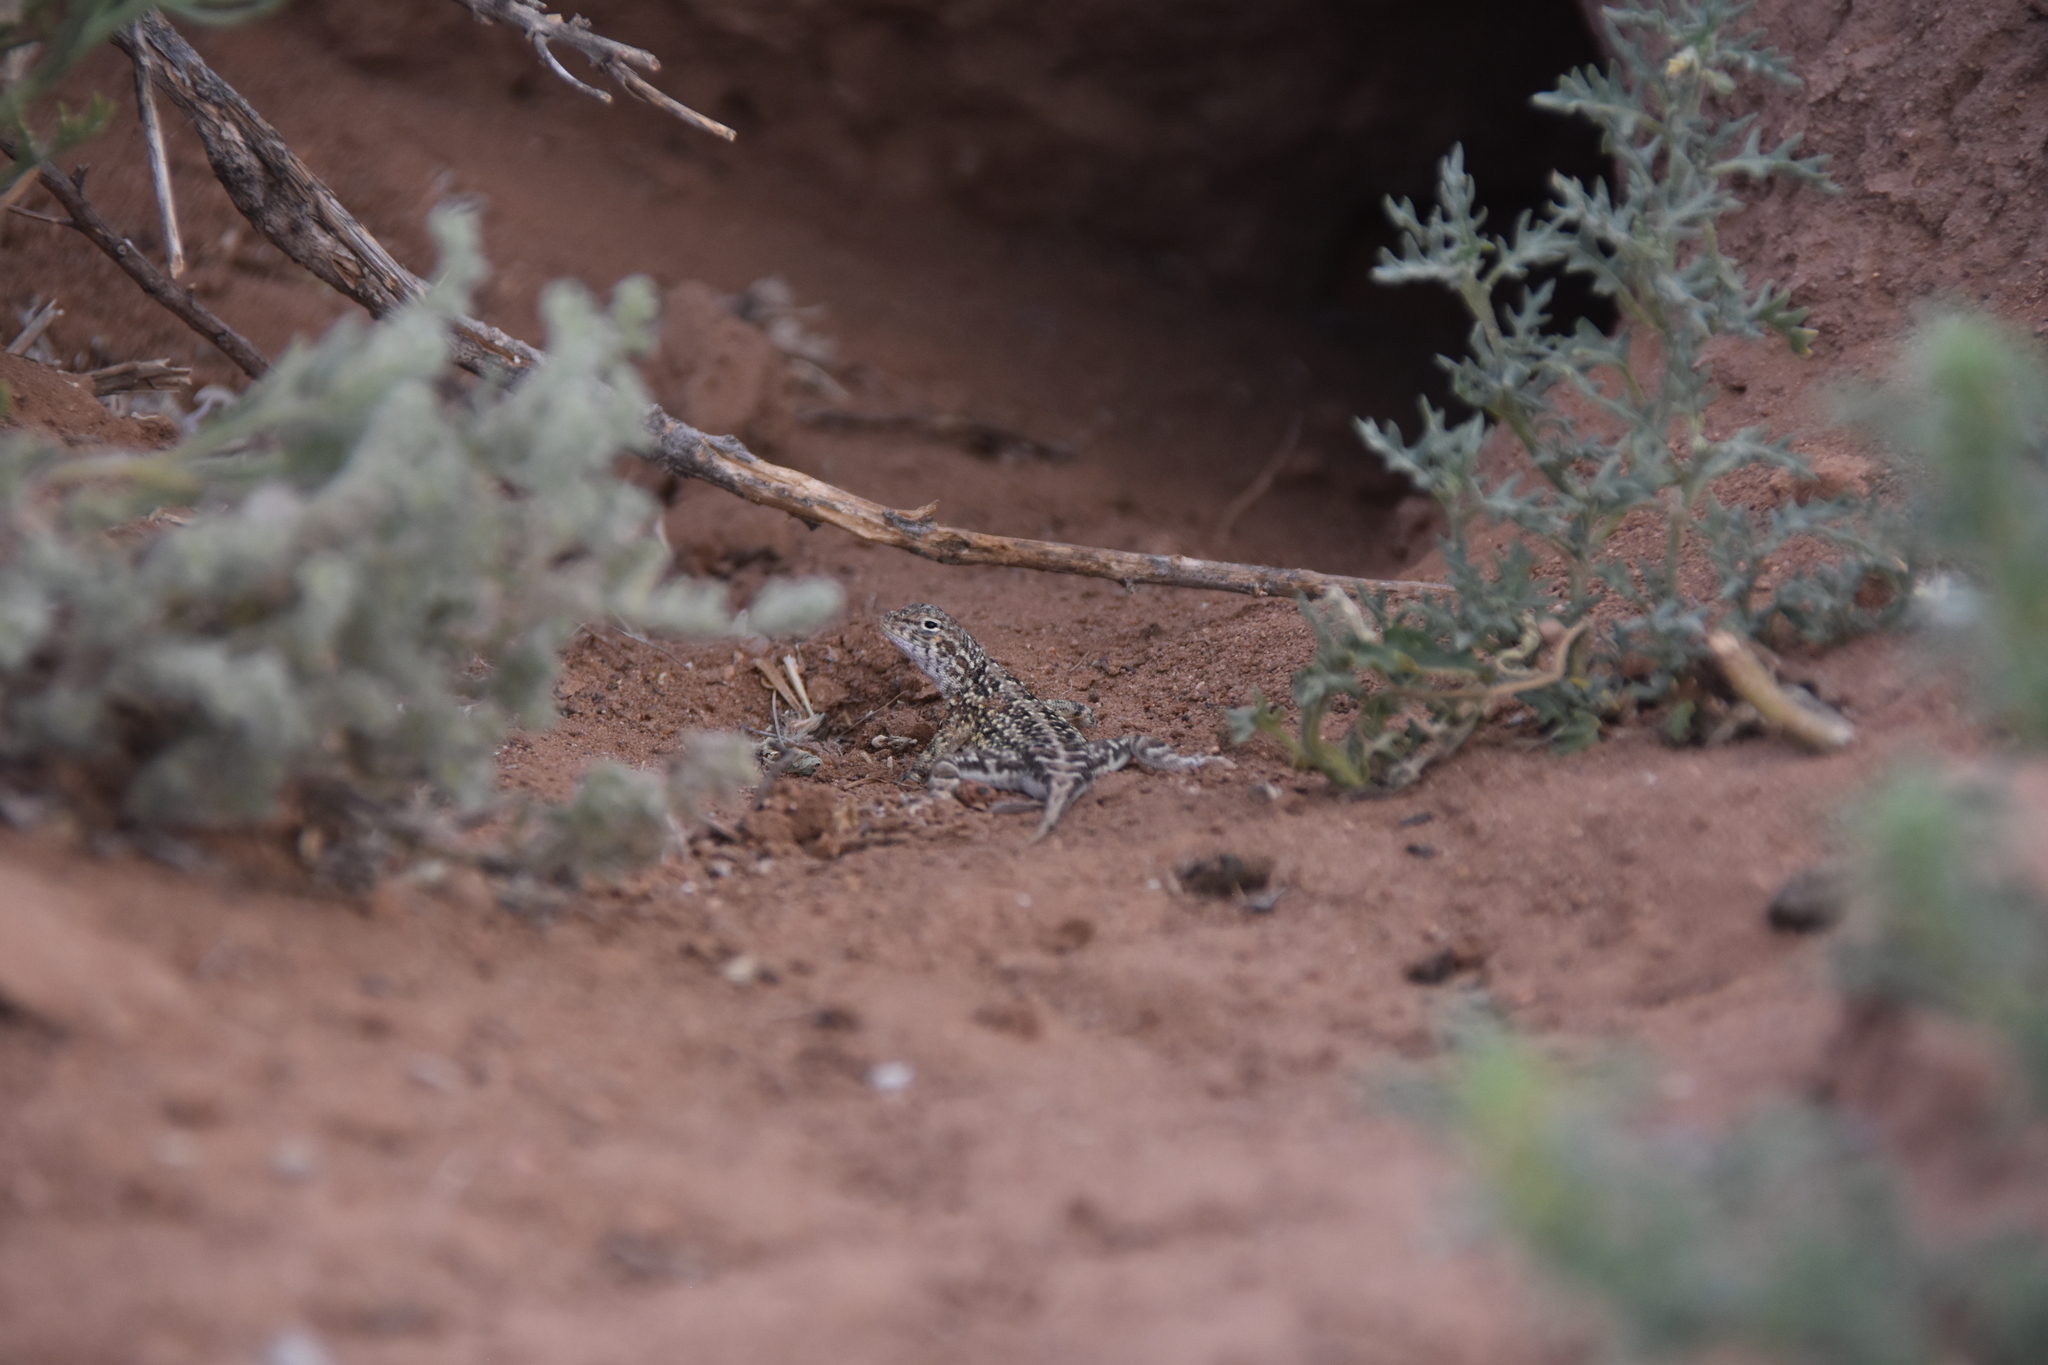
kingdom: Animalia
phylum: Chordata
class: Squamata
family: Phrynosomatidae
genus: Holbrookia
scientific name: Holbrookia maculata
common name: Lesser earless lizard
